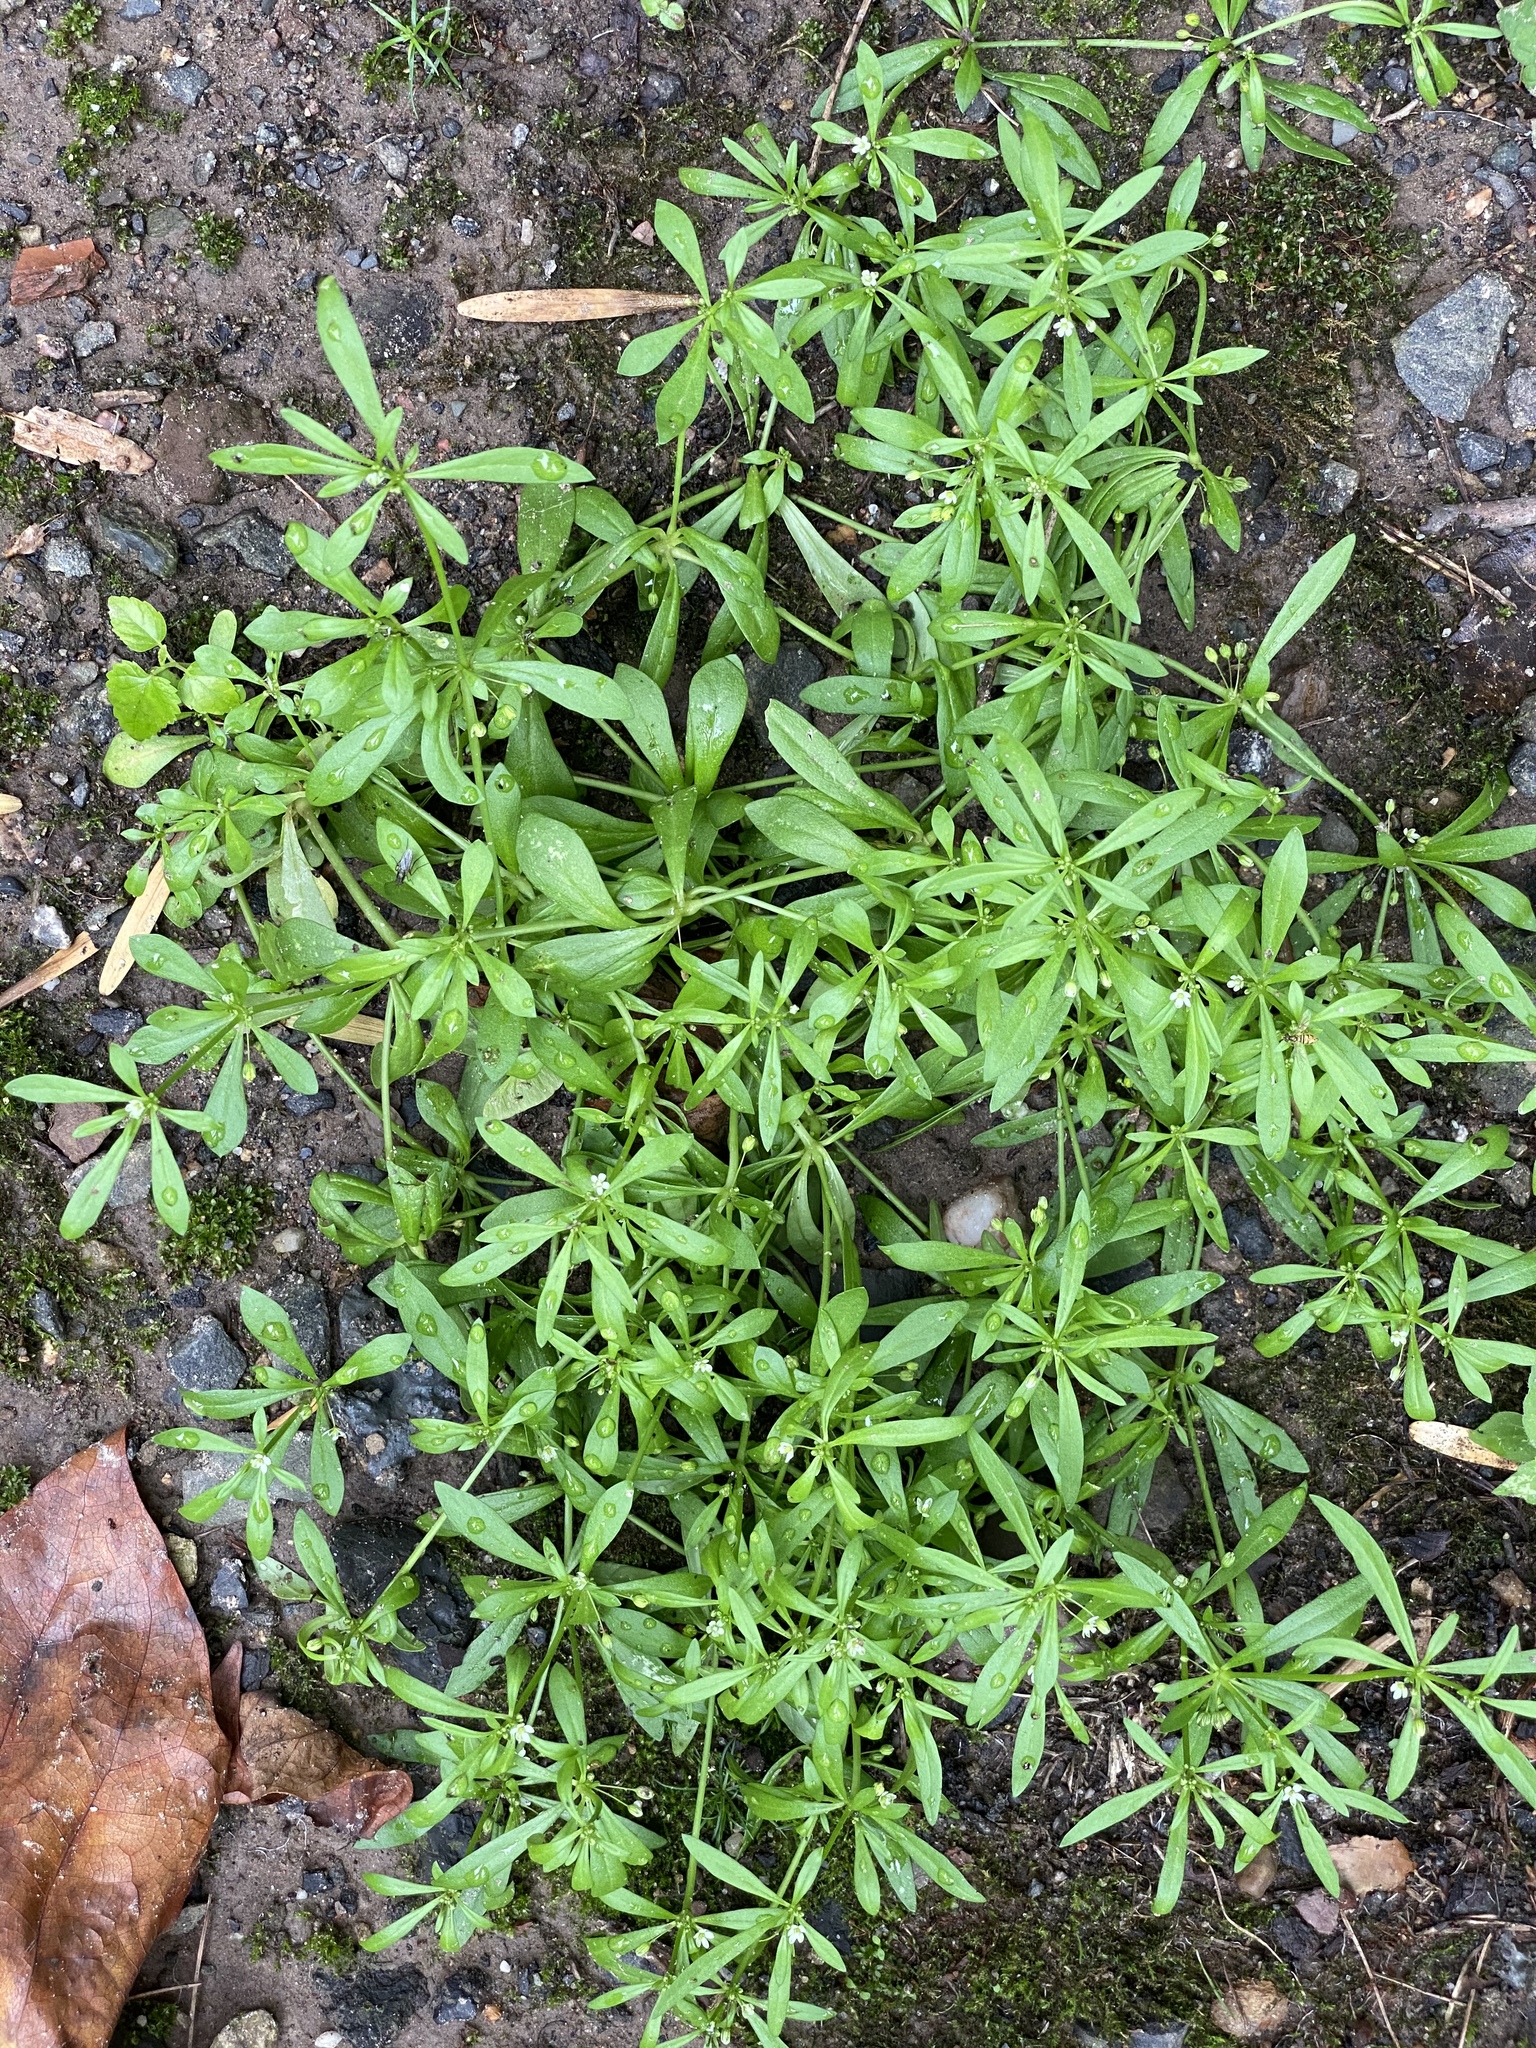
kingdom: Plantae
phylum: Tracheophyta
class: Magnoliopsida
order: Caryophyllales
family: Molluginaceae
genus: Mollugo
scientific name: Mollugo verticillata
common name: Green carpetweed
